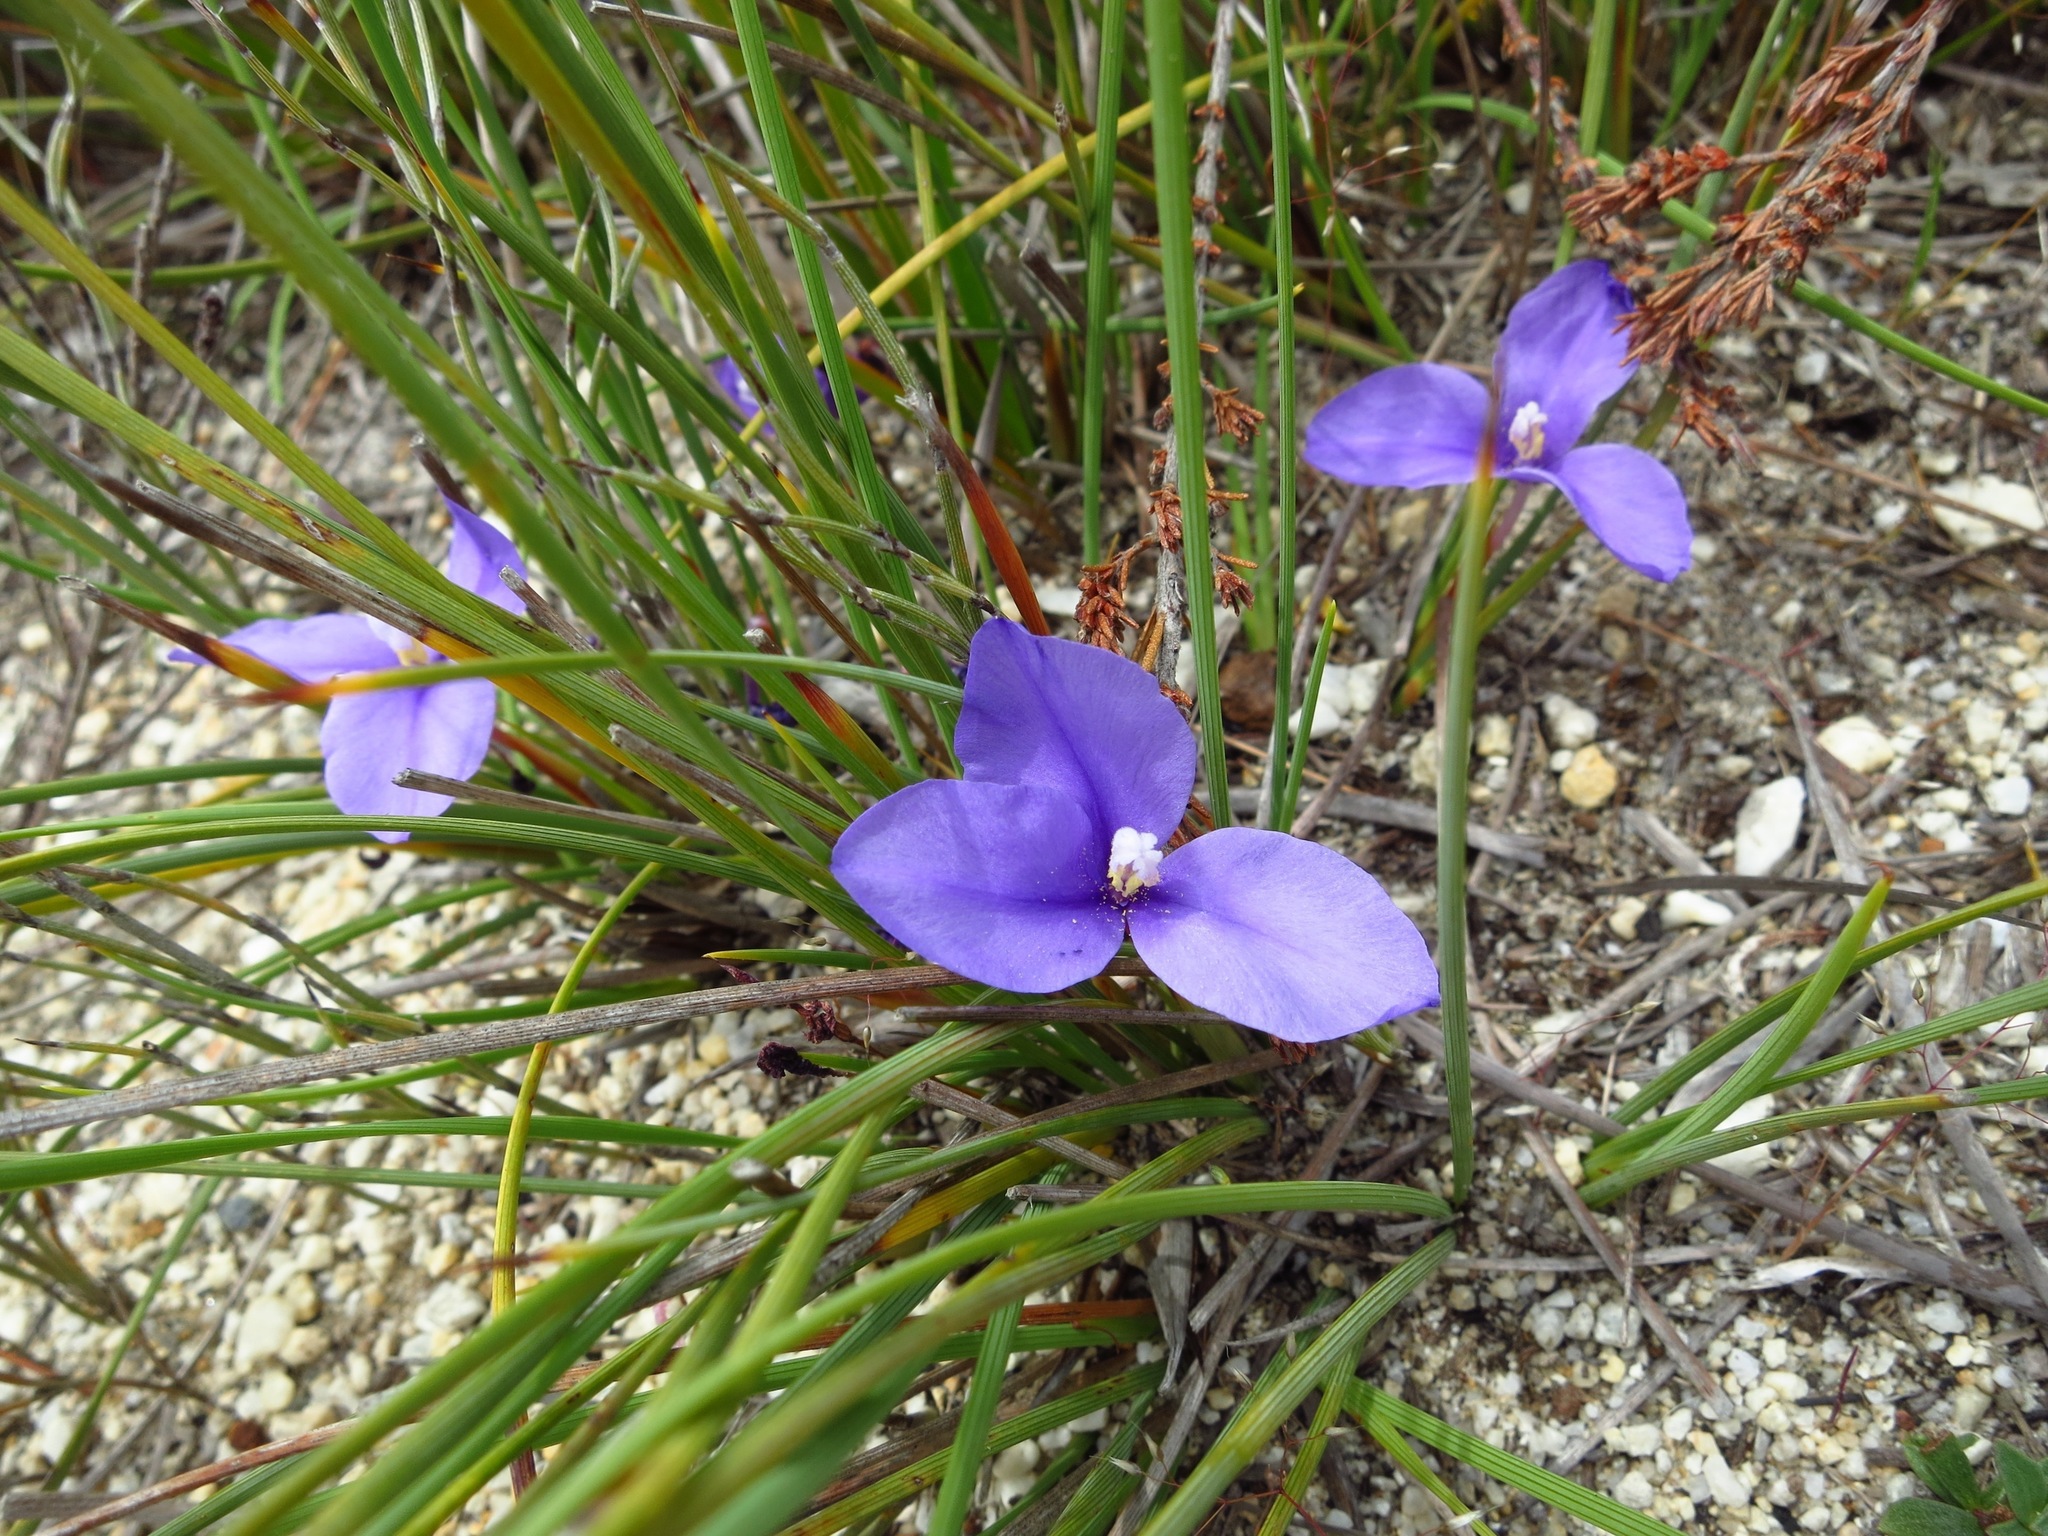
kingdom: Plantae
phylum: Tracheophyta
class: Liliopsida
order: Asparagales
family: Iridaceae
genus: Patersonia
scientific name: Patersonia fragilis
